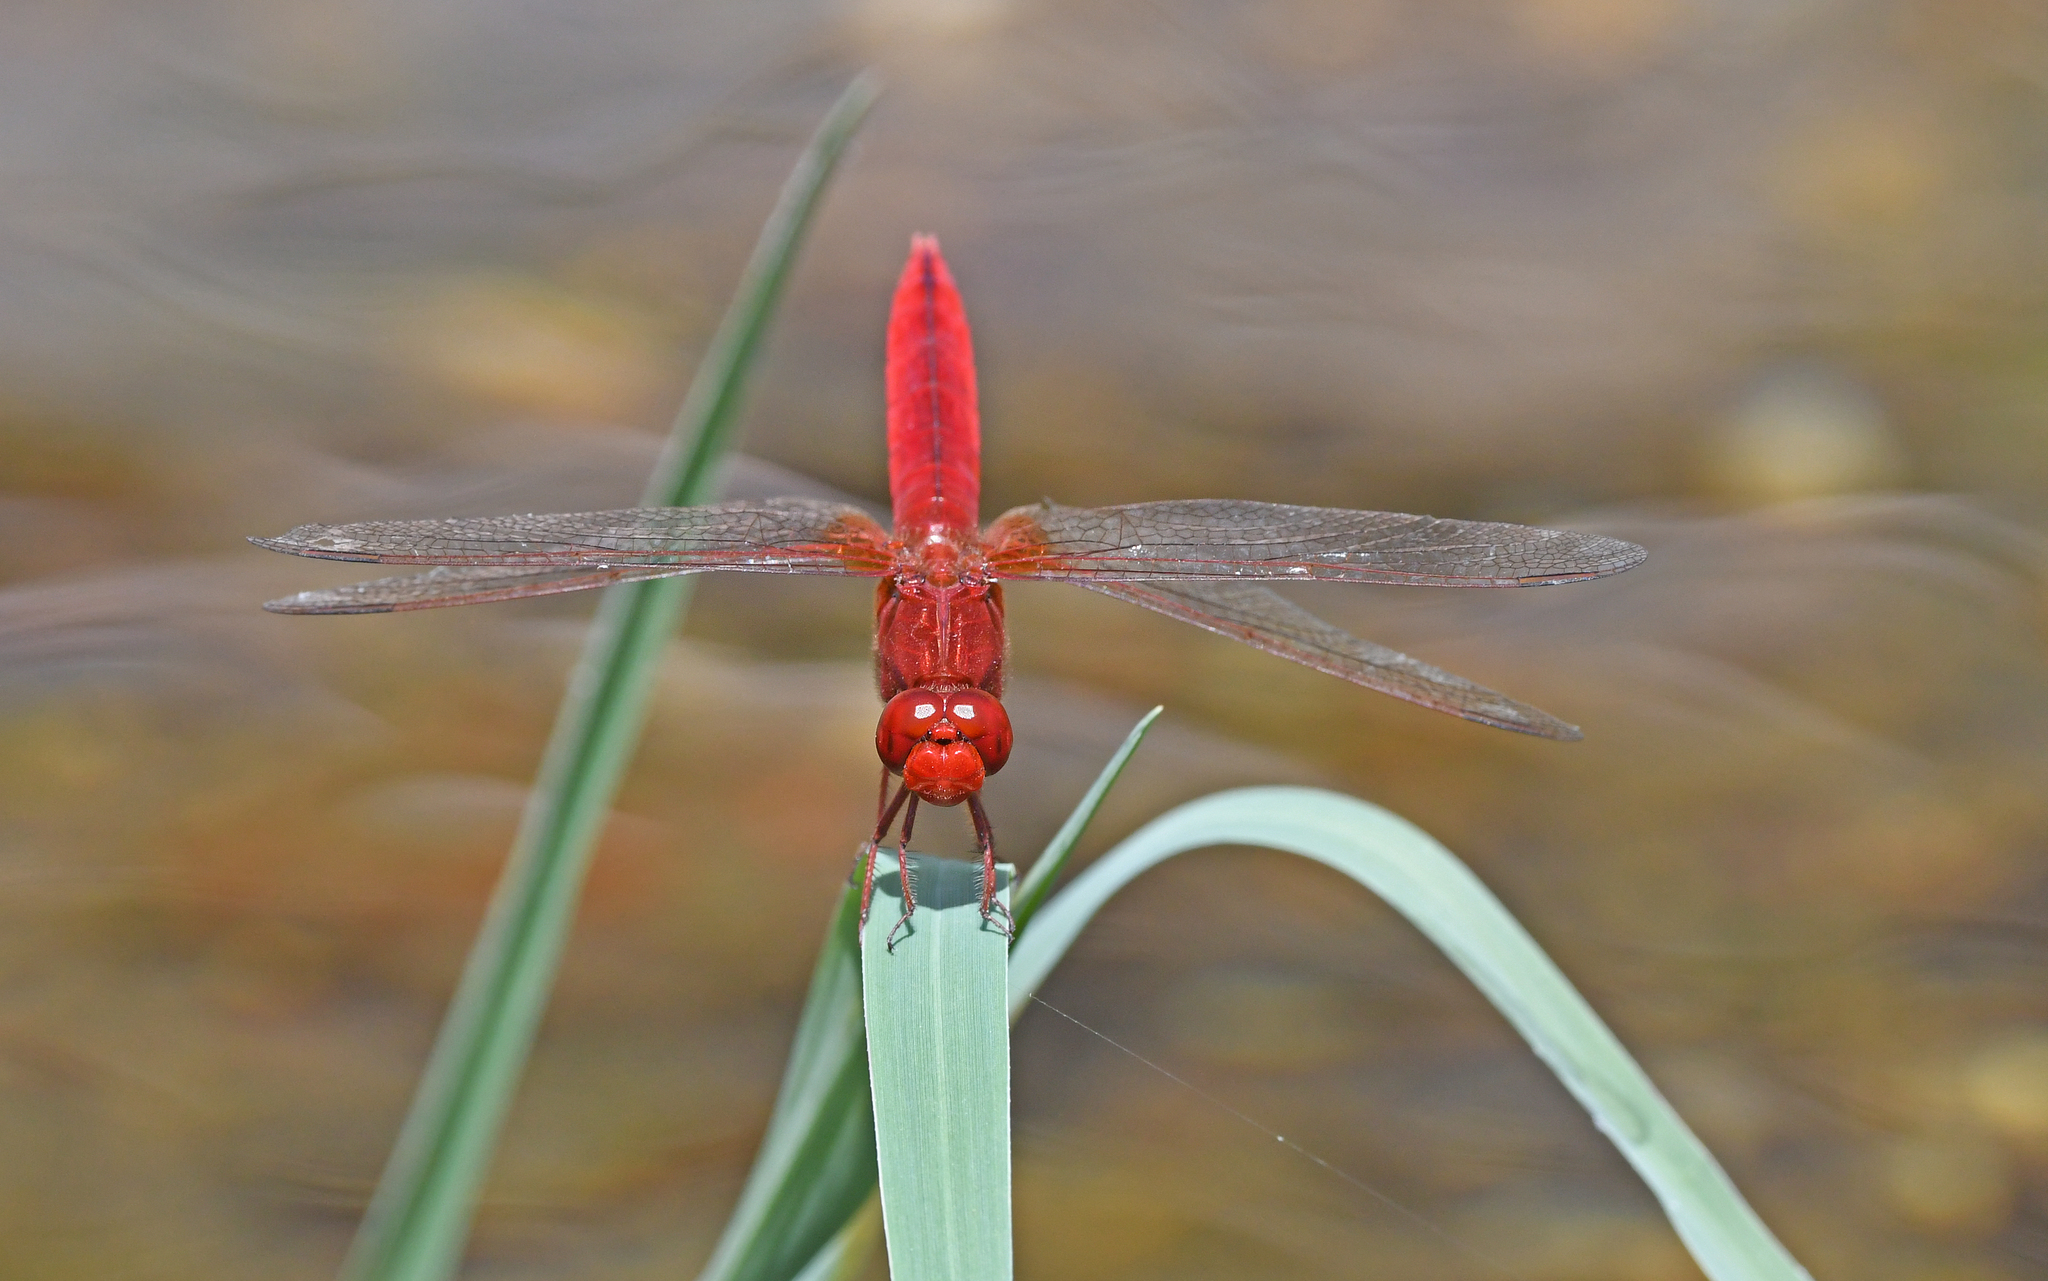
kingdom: Animalia
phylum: Arthropoda
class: Insecta
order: Odonata
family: Libellulidae
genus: Crocothemis
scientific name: Crocothemis erythraea
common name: Scarlet dragonfly
